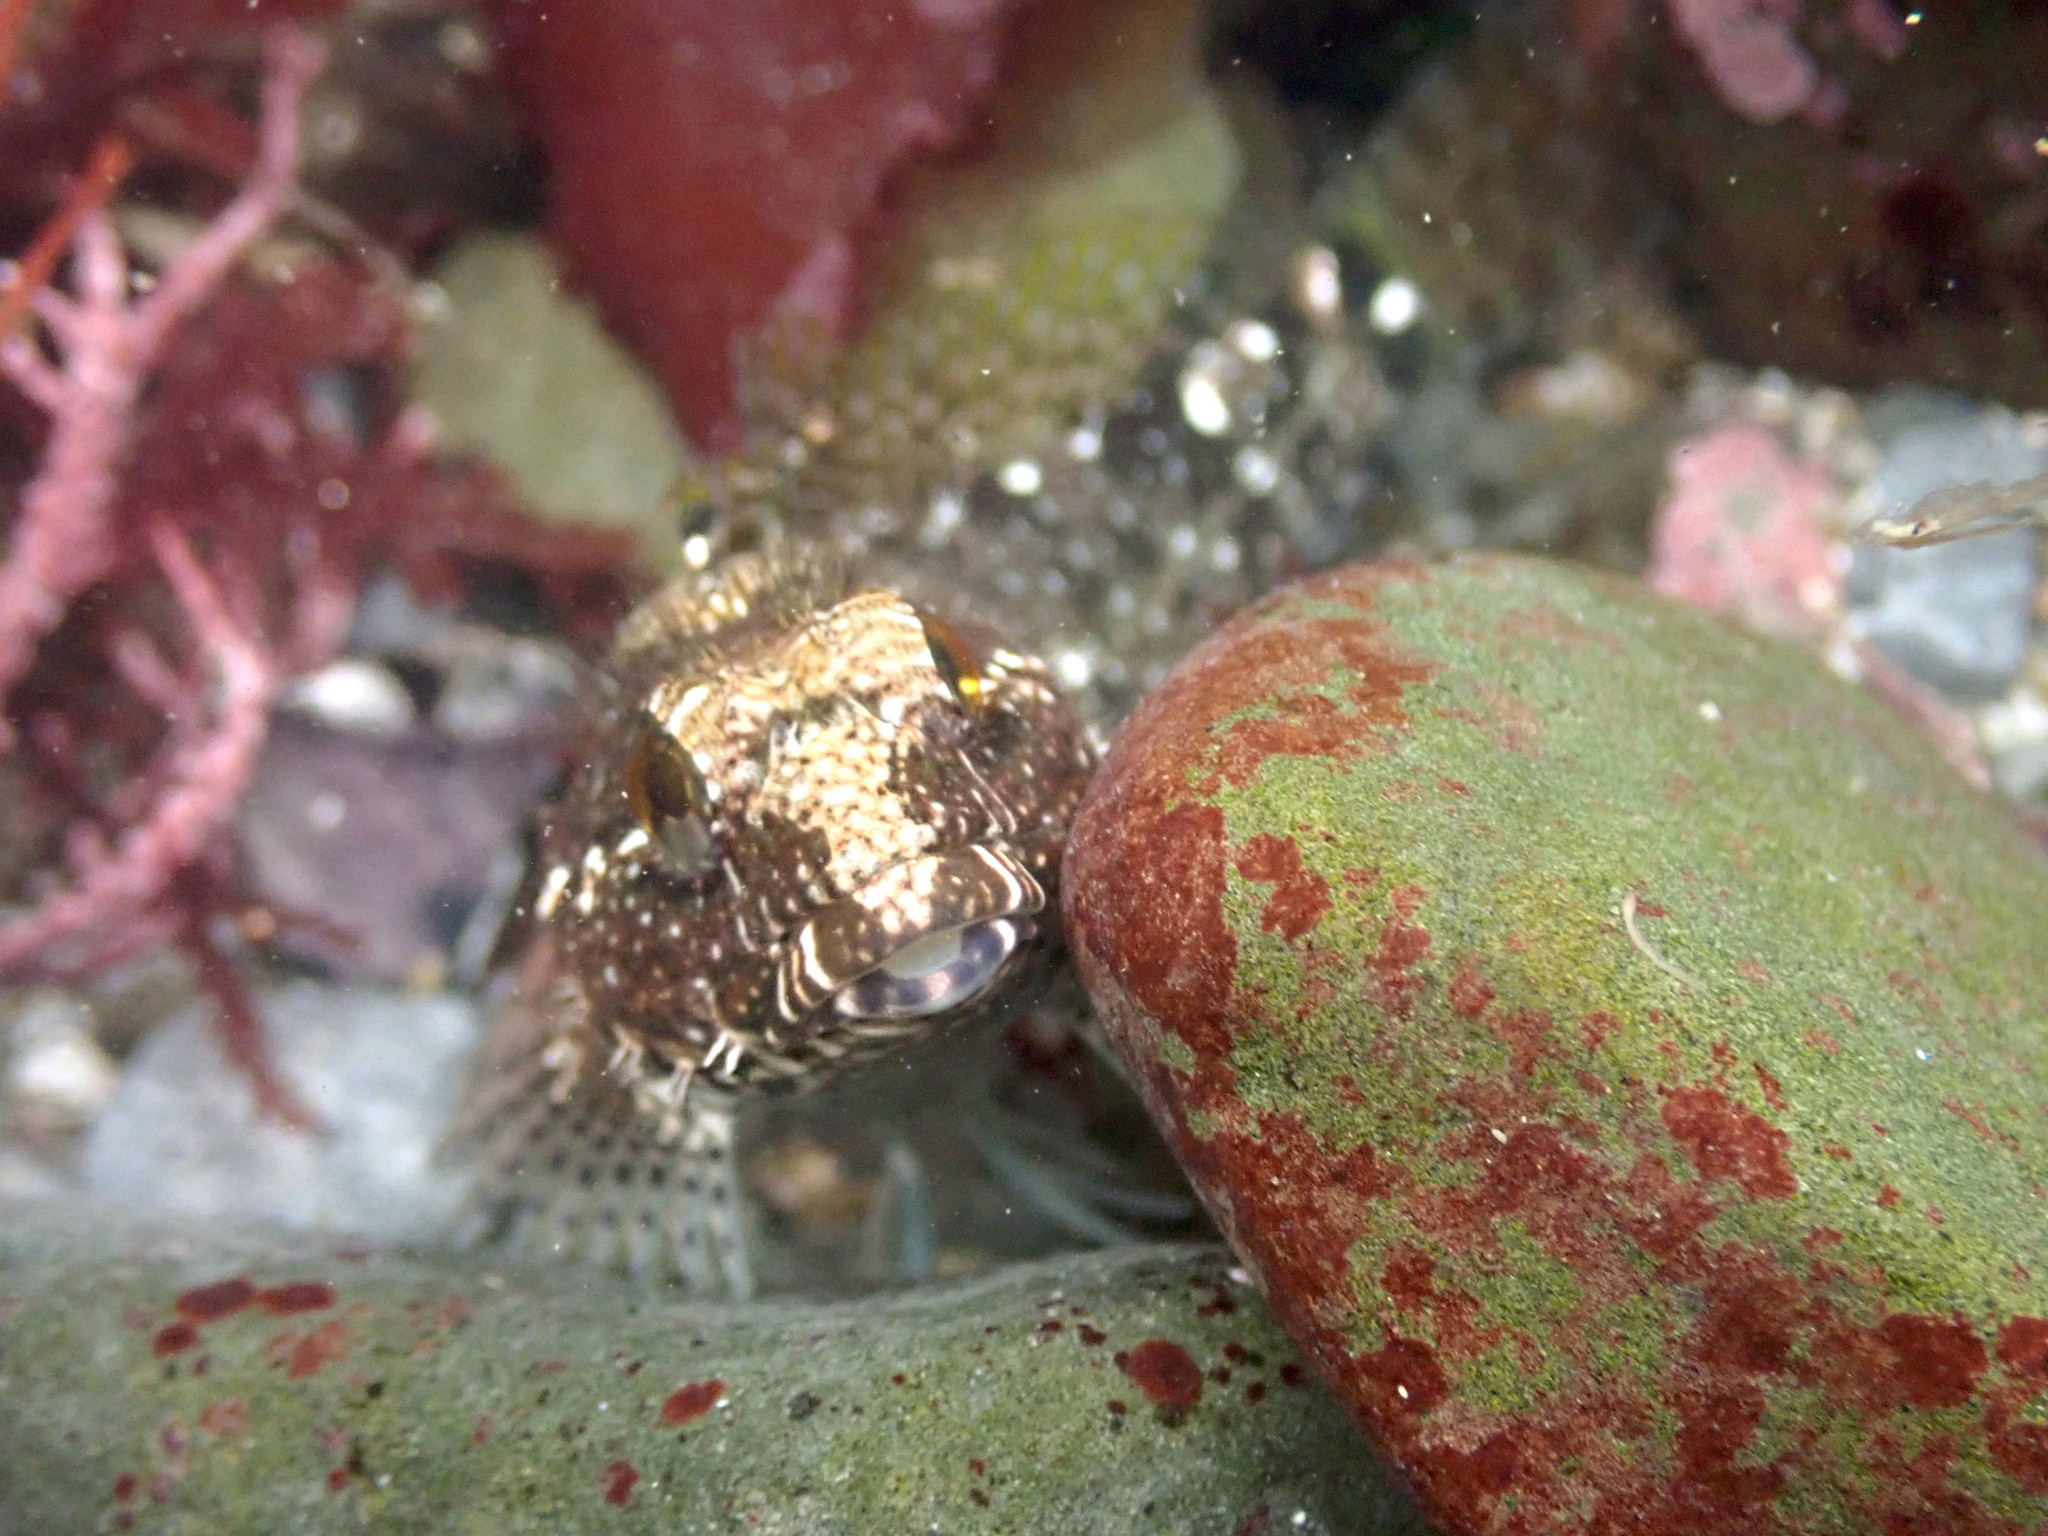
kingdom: Animalia
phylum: Chordata
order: Scorpaeniformes
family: Cottidae
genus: Clinocottus
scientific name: Clinocottus analis
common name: Woolly sculpin
